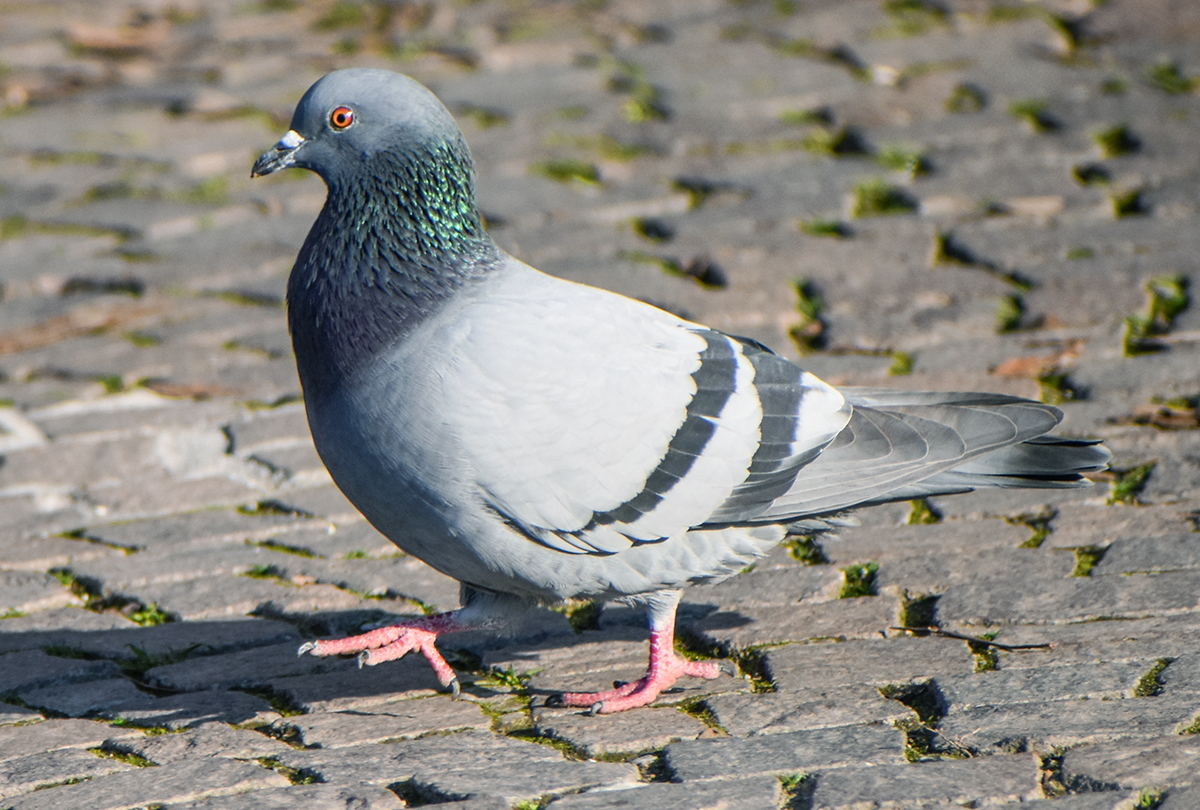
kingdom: Animalia
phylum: Chordata
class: Aves
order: Columbiformes
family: Columbidae
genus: Columba
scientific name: Columba livia
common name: Rock pigeon
